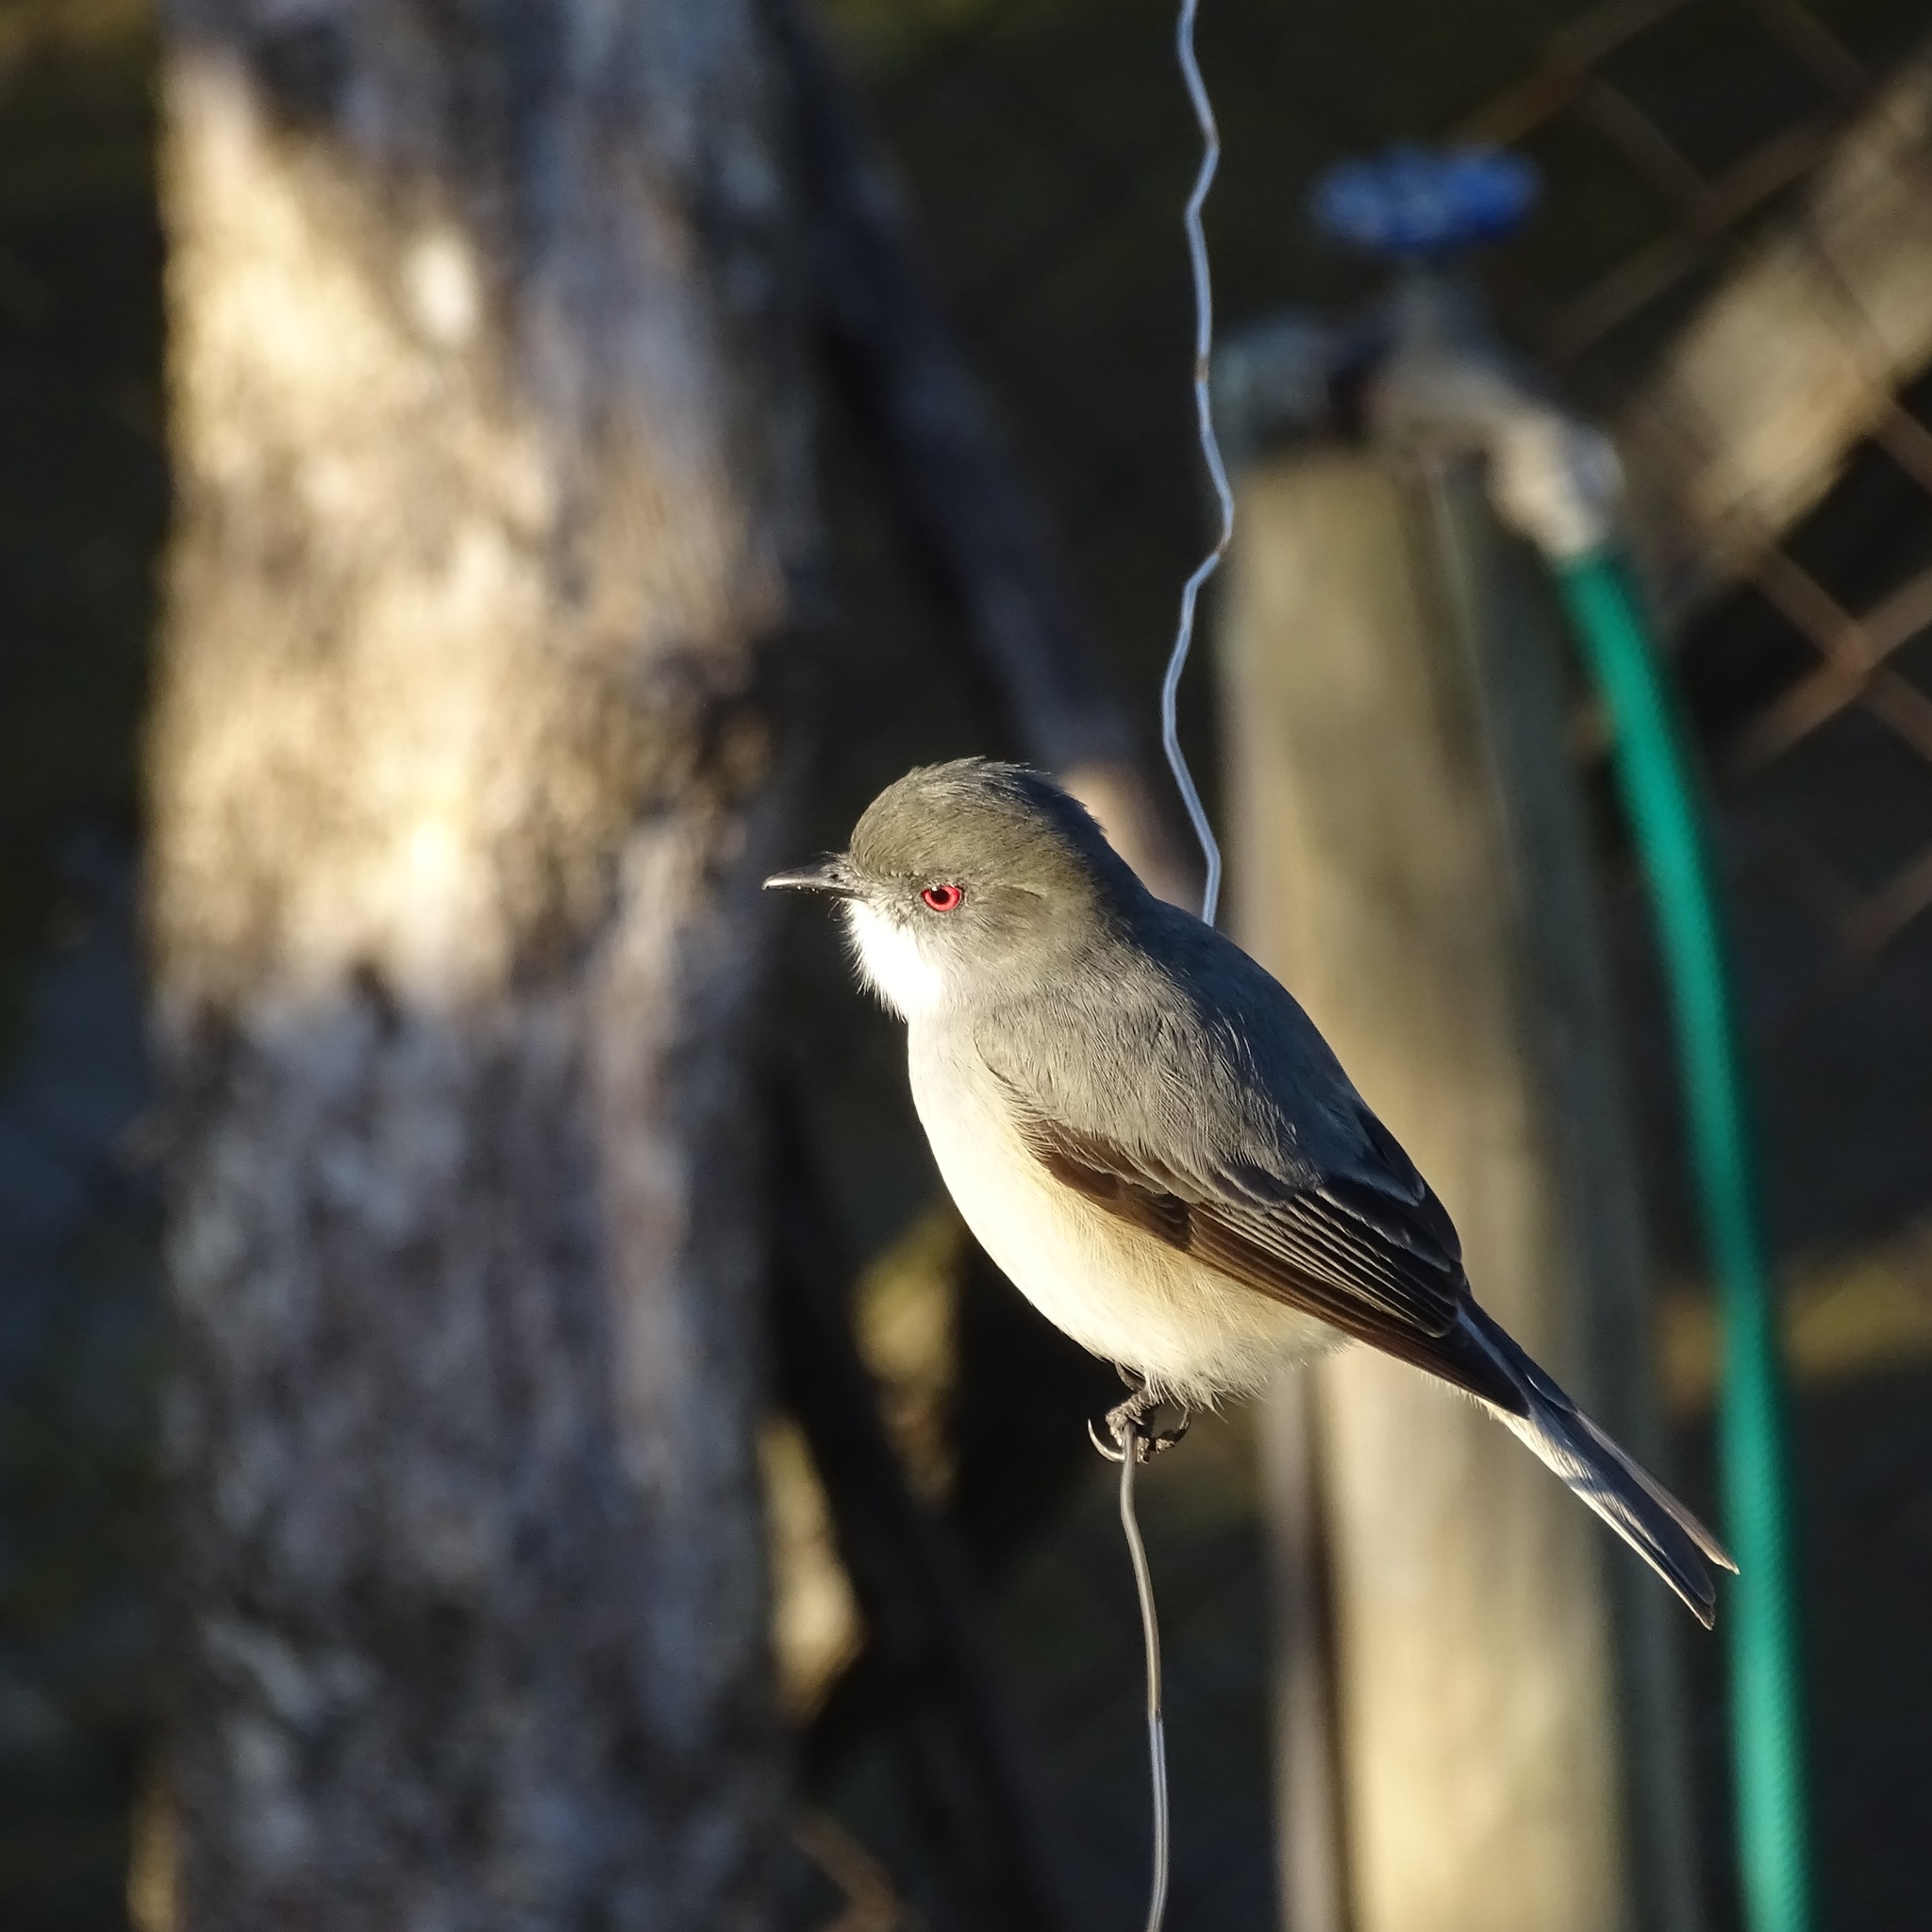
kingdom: Animalia
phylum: Chordata
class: Aves
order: Passeriformes
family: Tyrannidae
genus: Xolmis
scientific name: Xolmis pyrope
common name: Fire-eyed diucon
